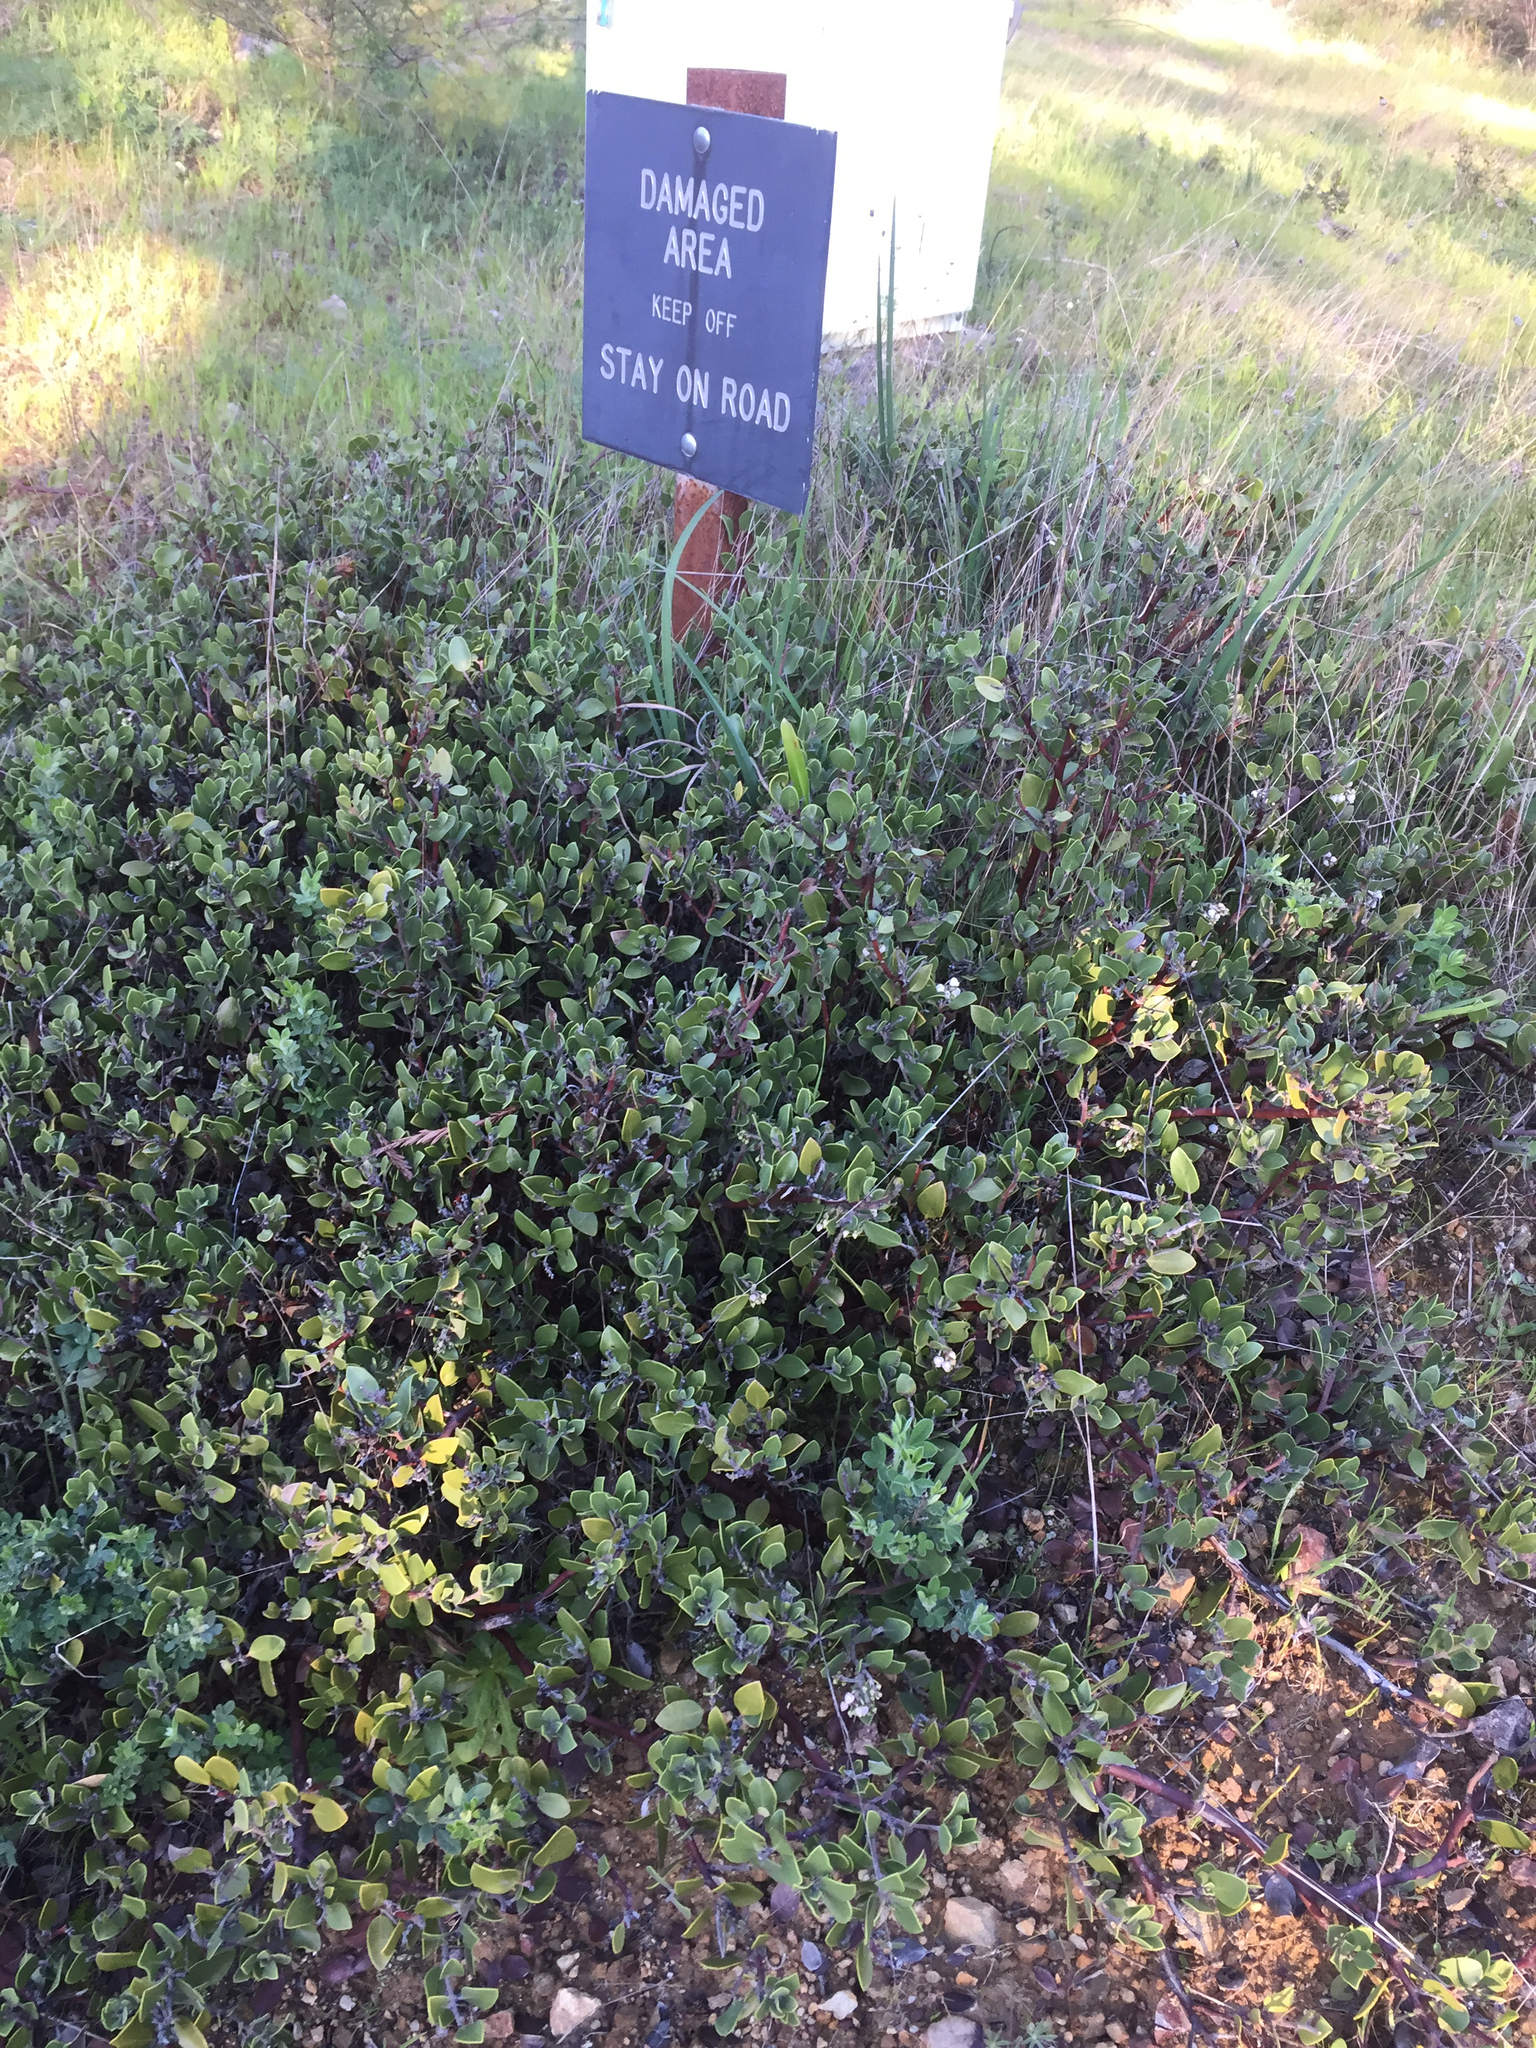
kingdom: Plantae
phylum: Tracheophyta
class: Magnoliopsida
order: Ericales
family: Ericaceae
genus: Arctostaphylos
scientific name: Arctostaphylos montana
